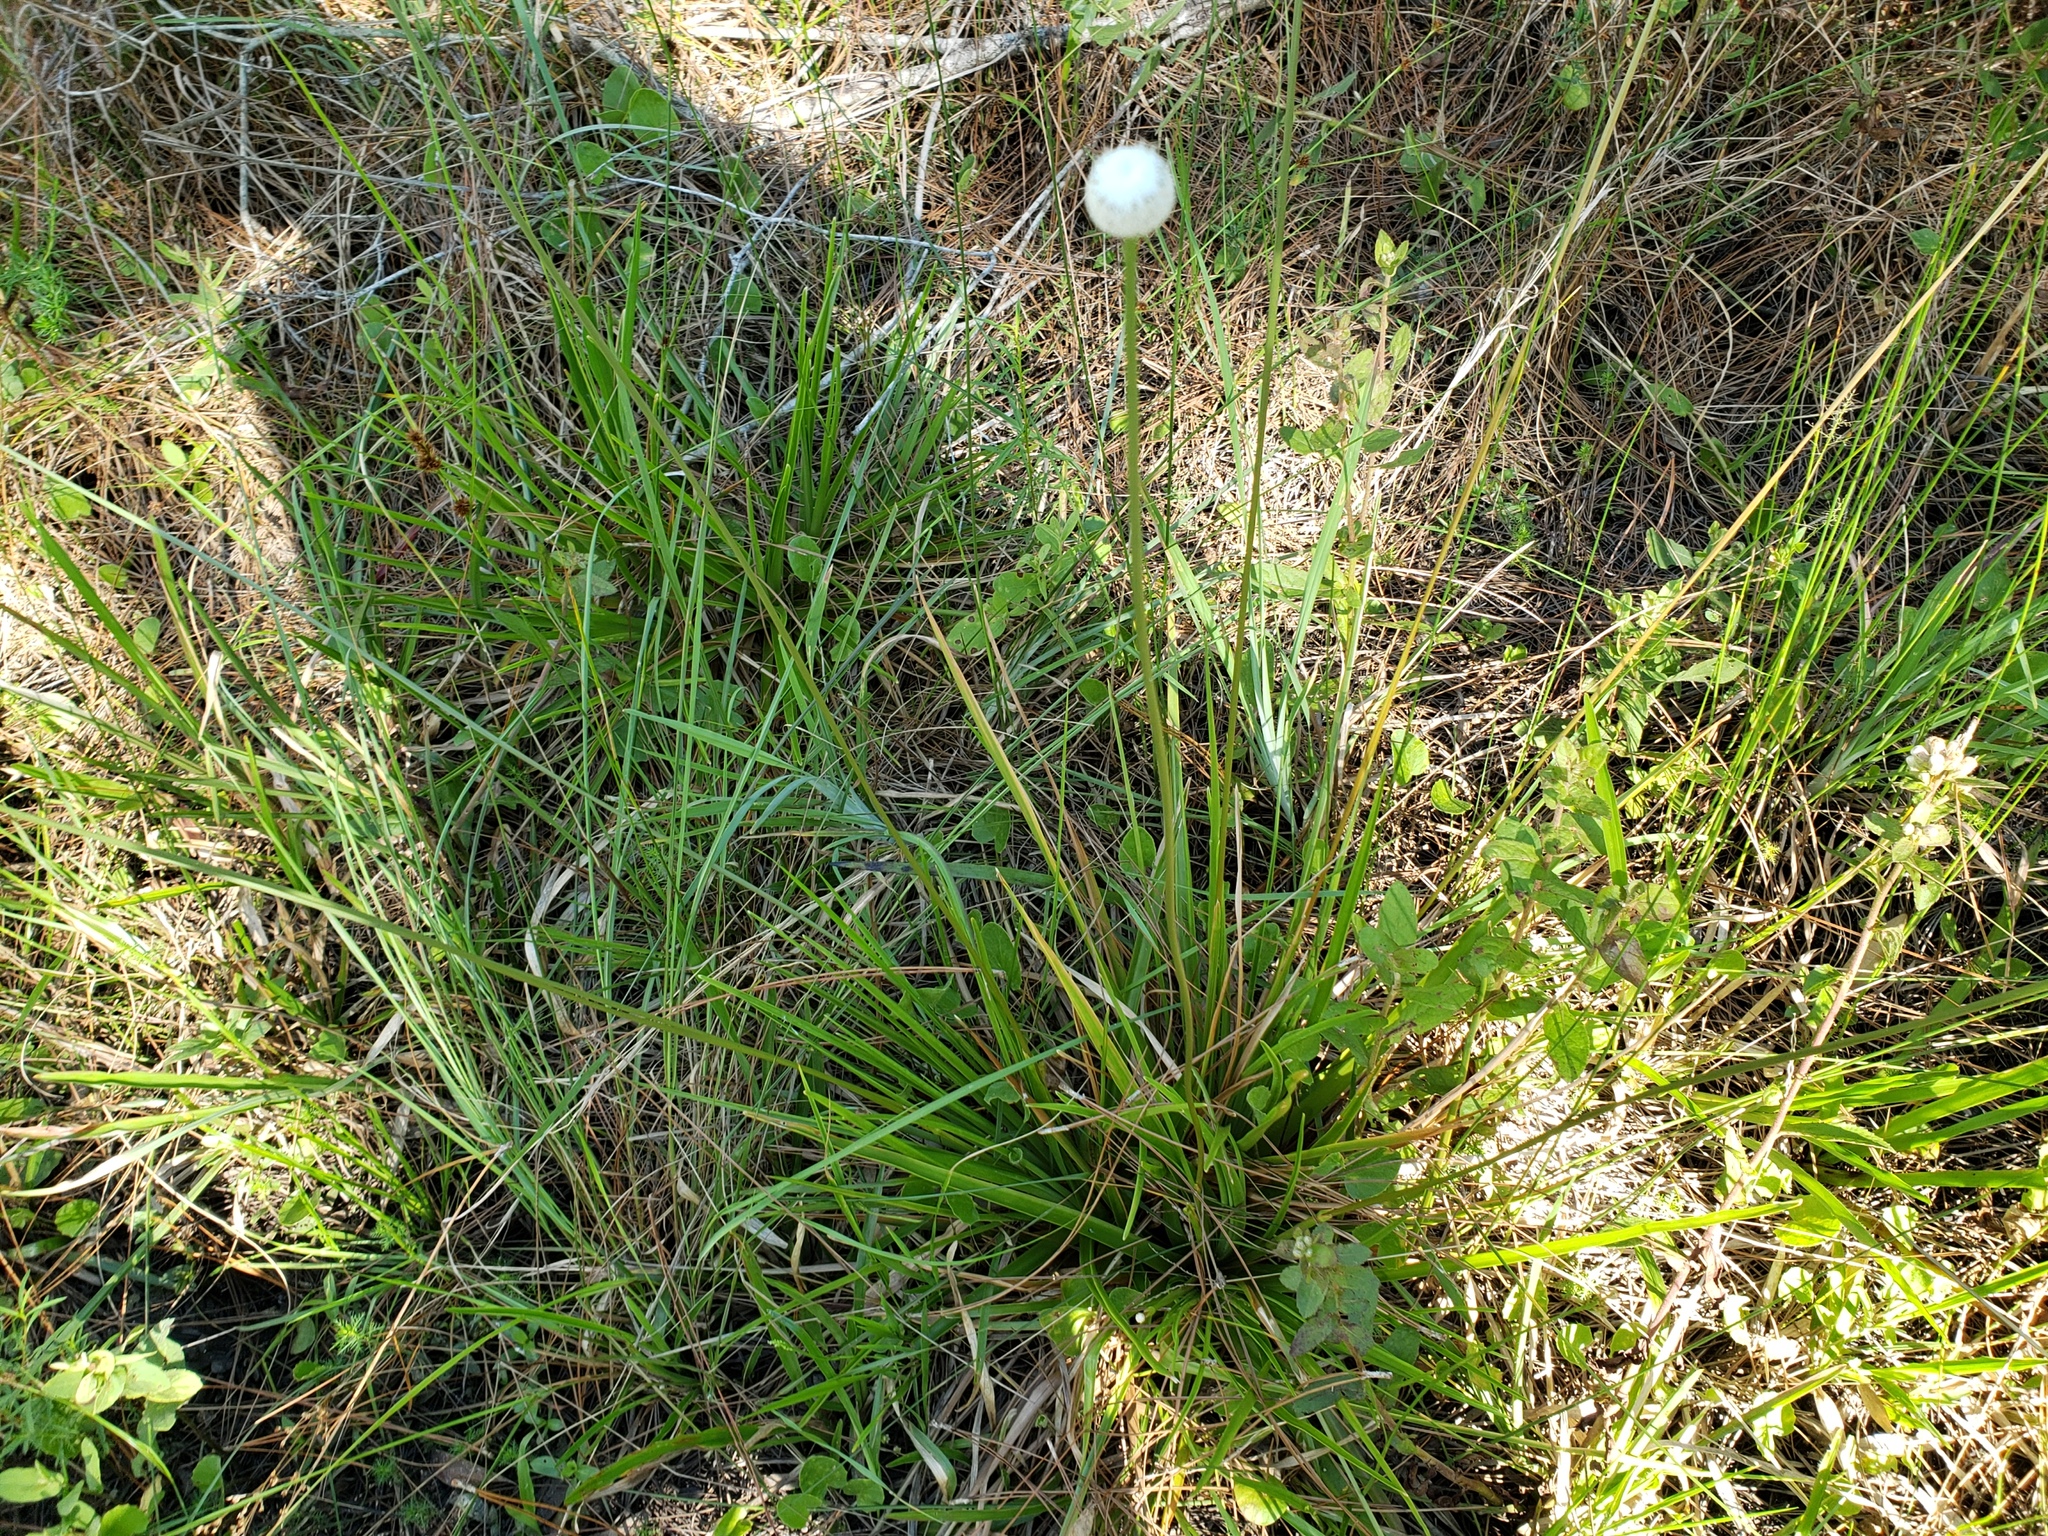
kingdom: Plantae
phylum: Tracheophyta
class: Liliopsida
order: Poales
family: Eriocaulaceae
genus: Eriocaulon
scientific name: Eriocaulon decangulare
